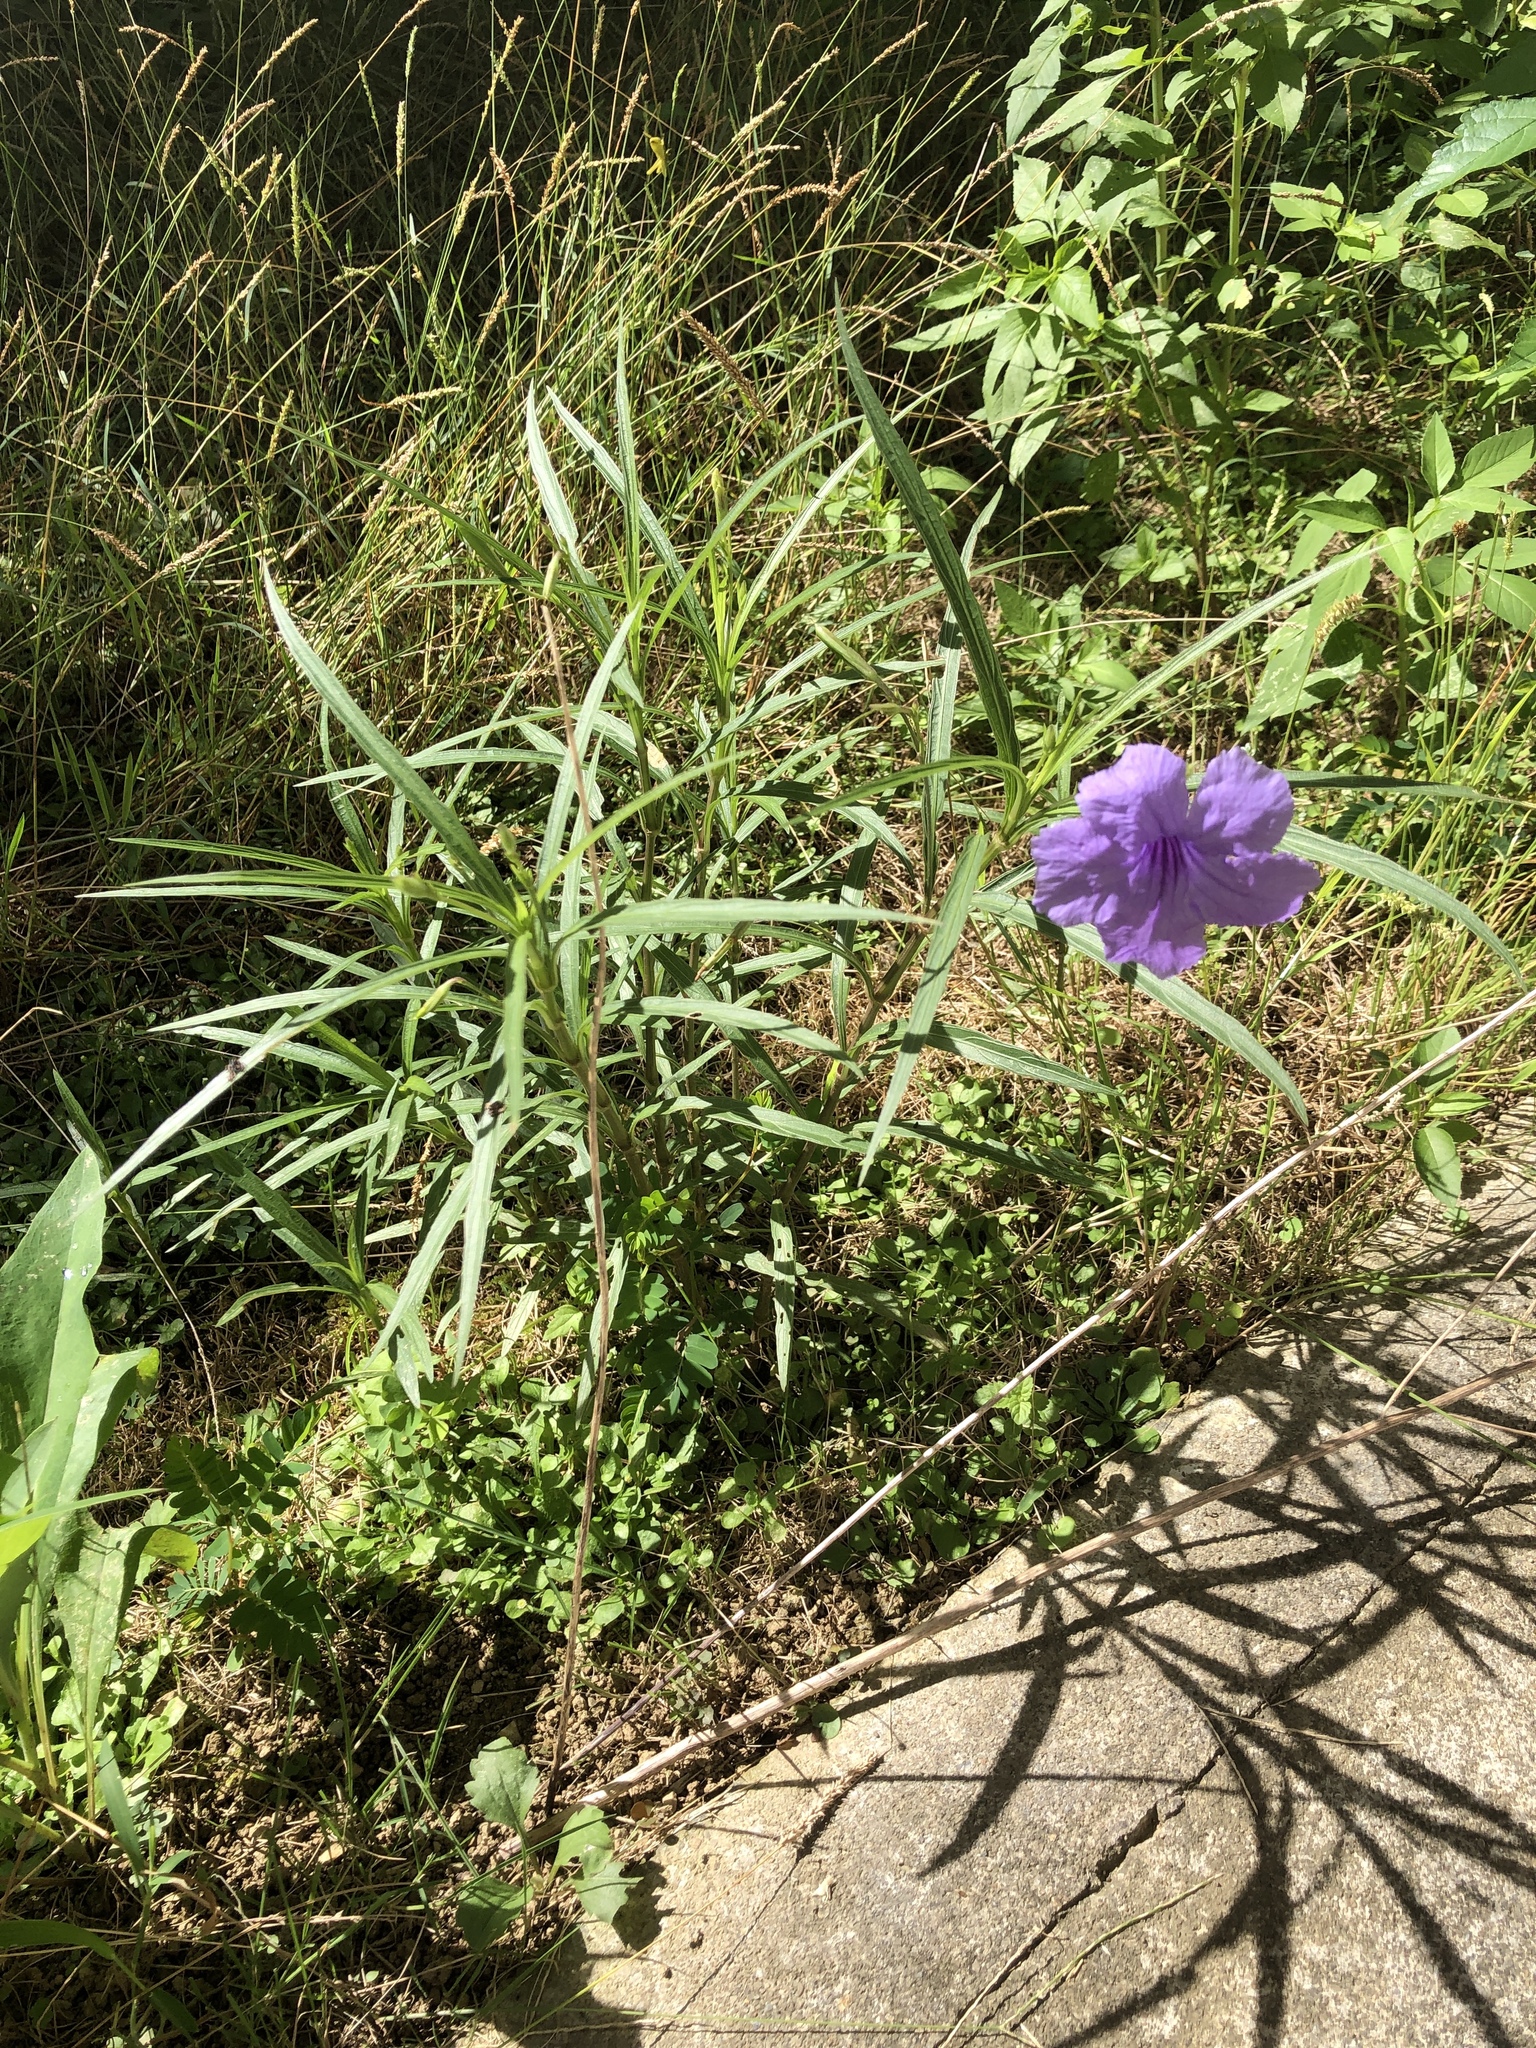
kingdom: Plantae
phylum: Tracheophyta
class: Magnoliopsida
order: Lamiales
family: Acanthaceae
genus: Ruellia
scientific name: Ruellia simplex
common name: Softseed wild petunia
